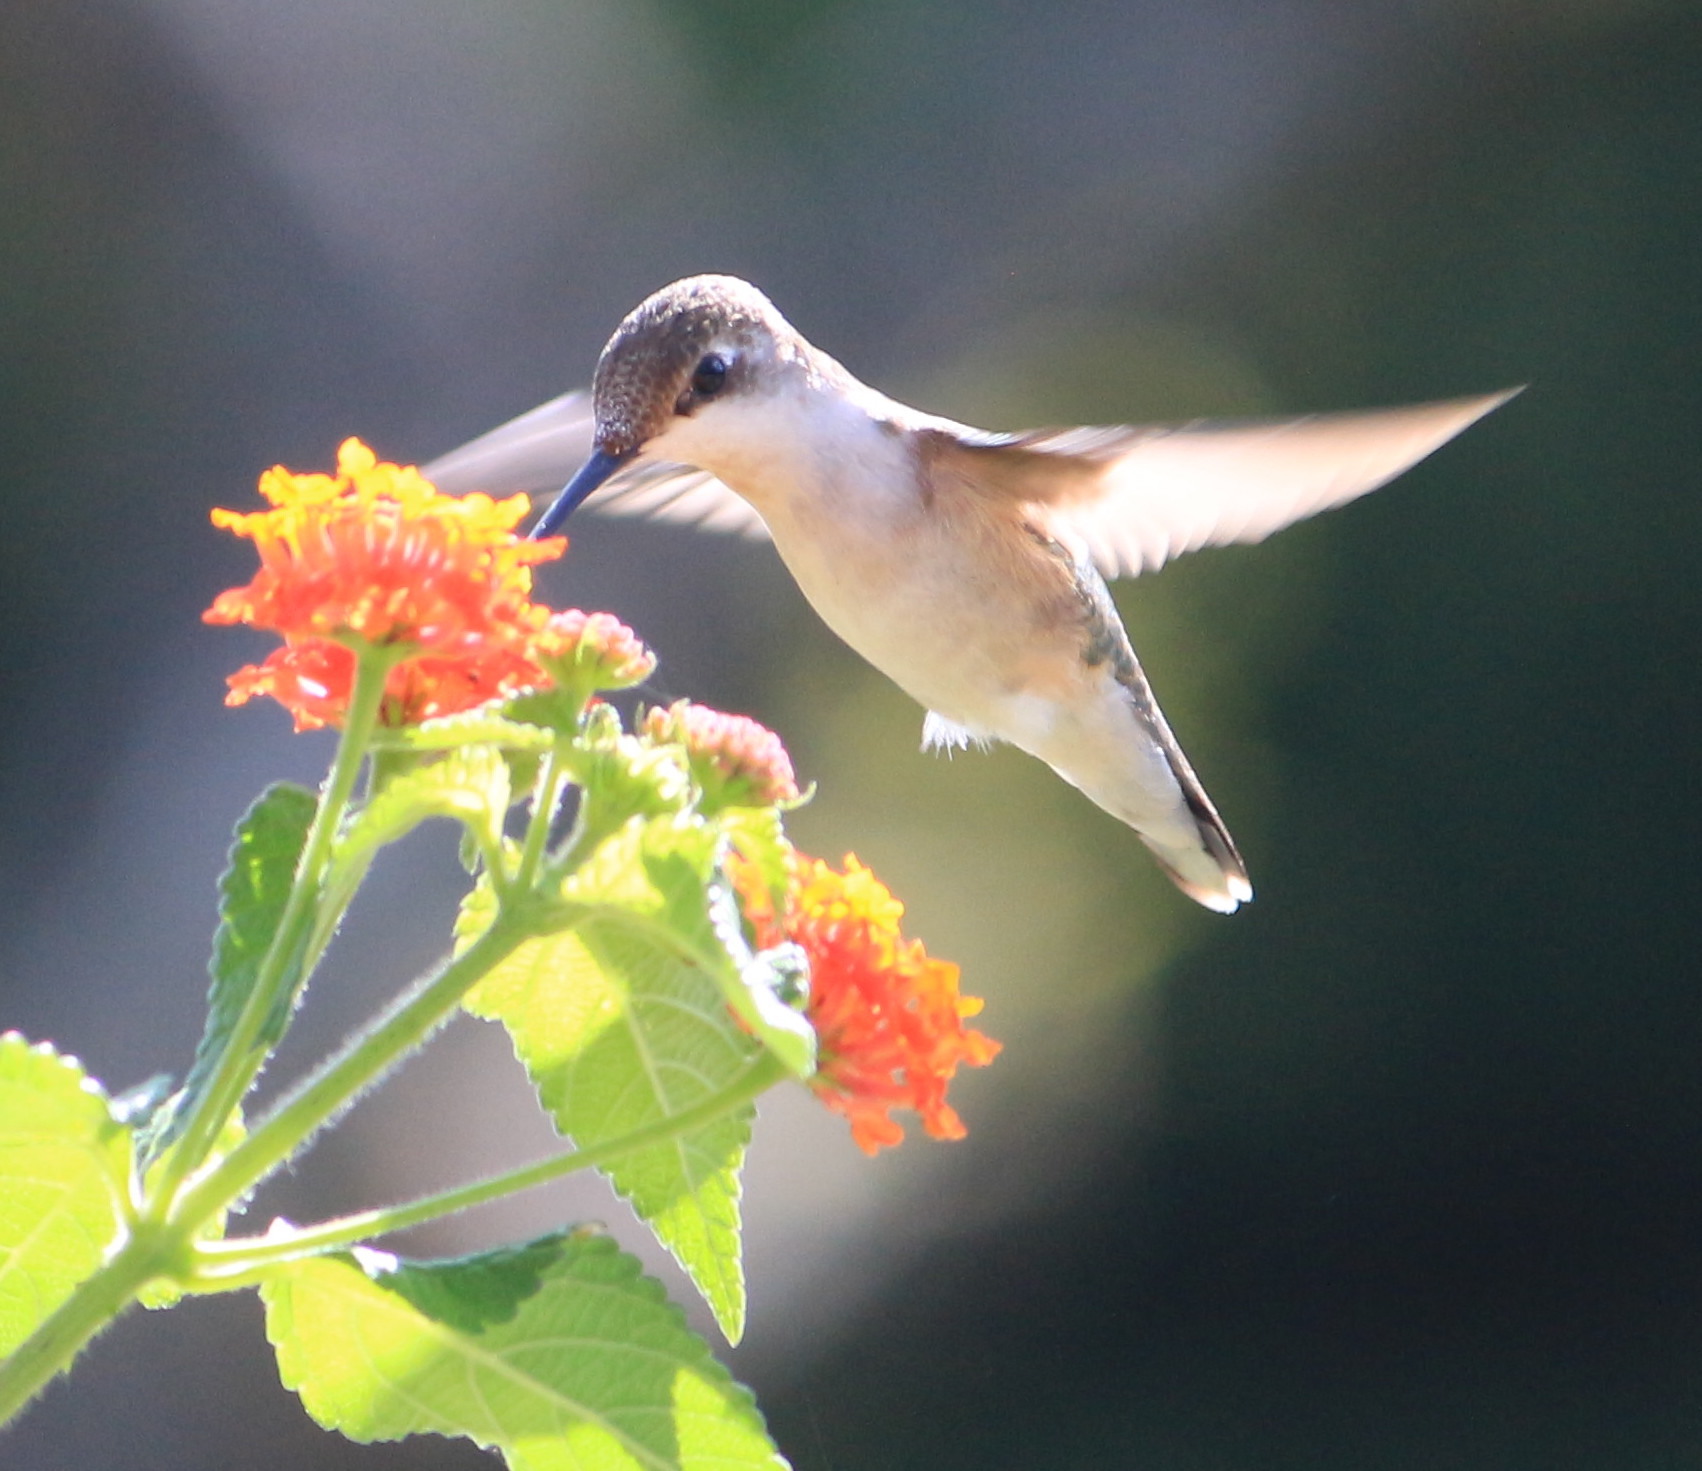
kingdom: Animalia
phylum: Chordata
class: Aves
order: Apodiformes
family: Trochilidae
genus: Archilochus
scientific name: Archilochus colubris
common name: Ruby-throated hummingbird
